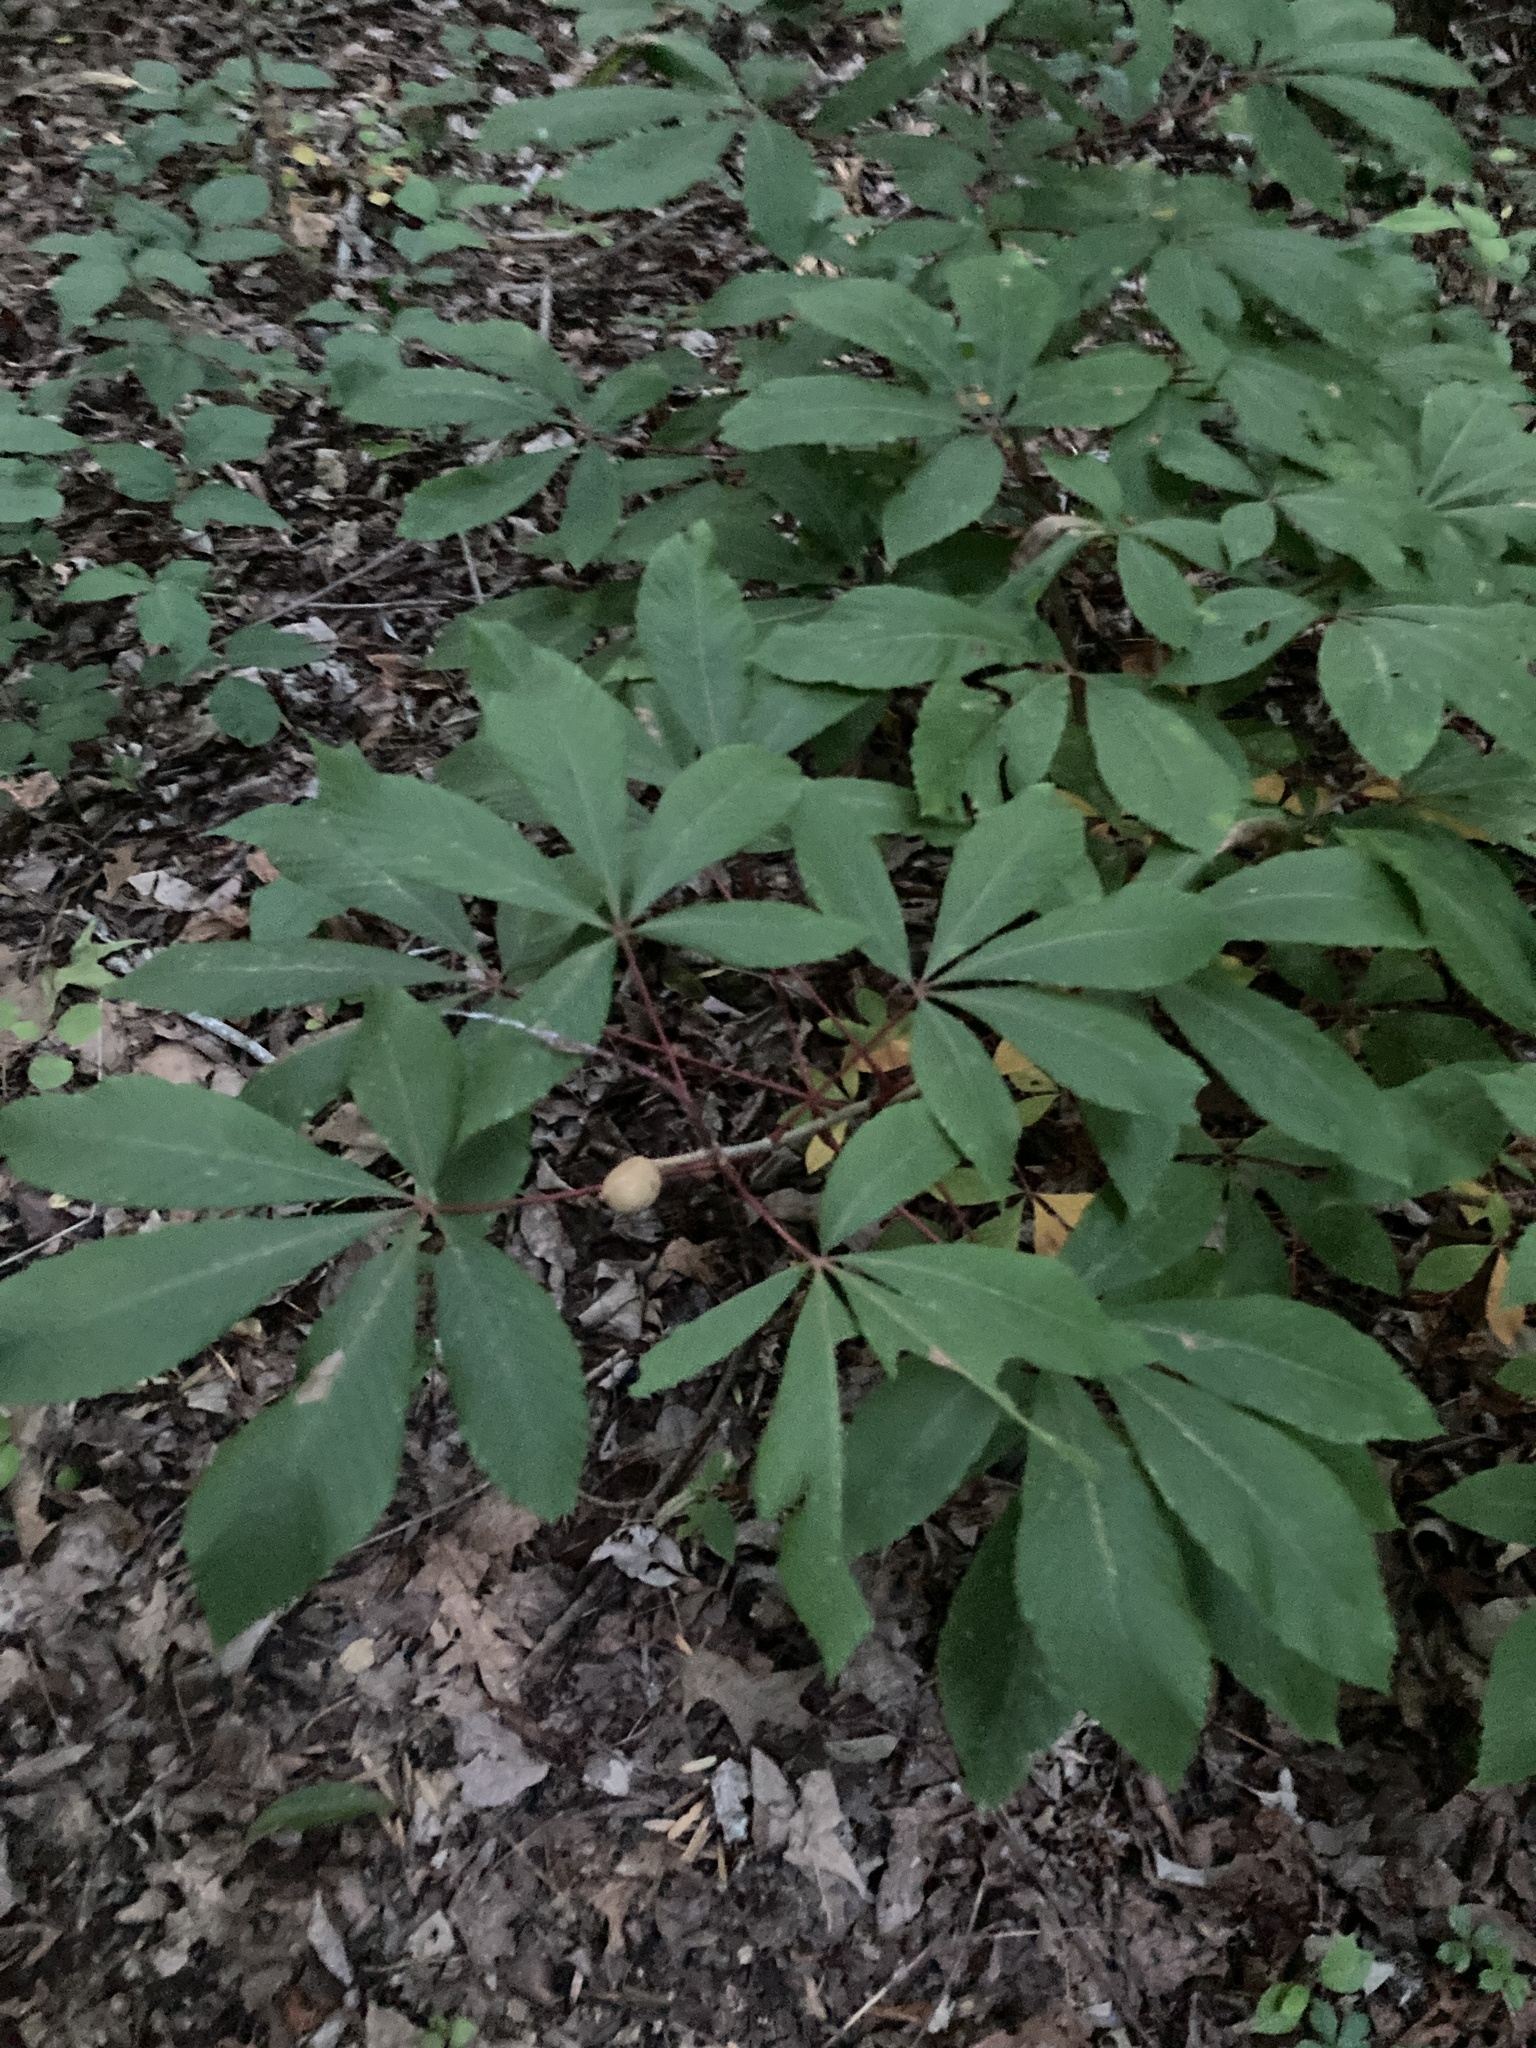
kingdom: Plantae
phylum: Tracheophyta
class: Magnoliopsida
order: Sapindales
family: Sapindaceae
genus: Aesculus
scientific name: Aesculus pavia
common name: Red buckeye
